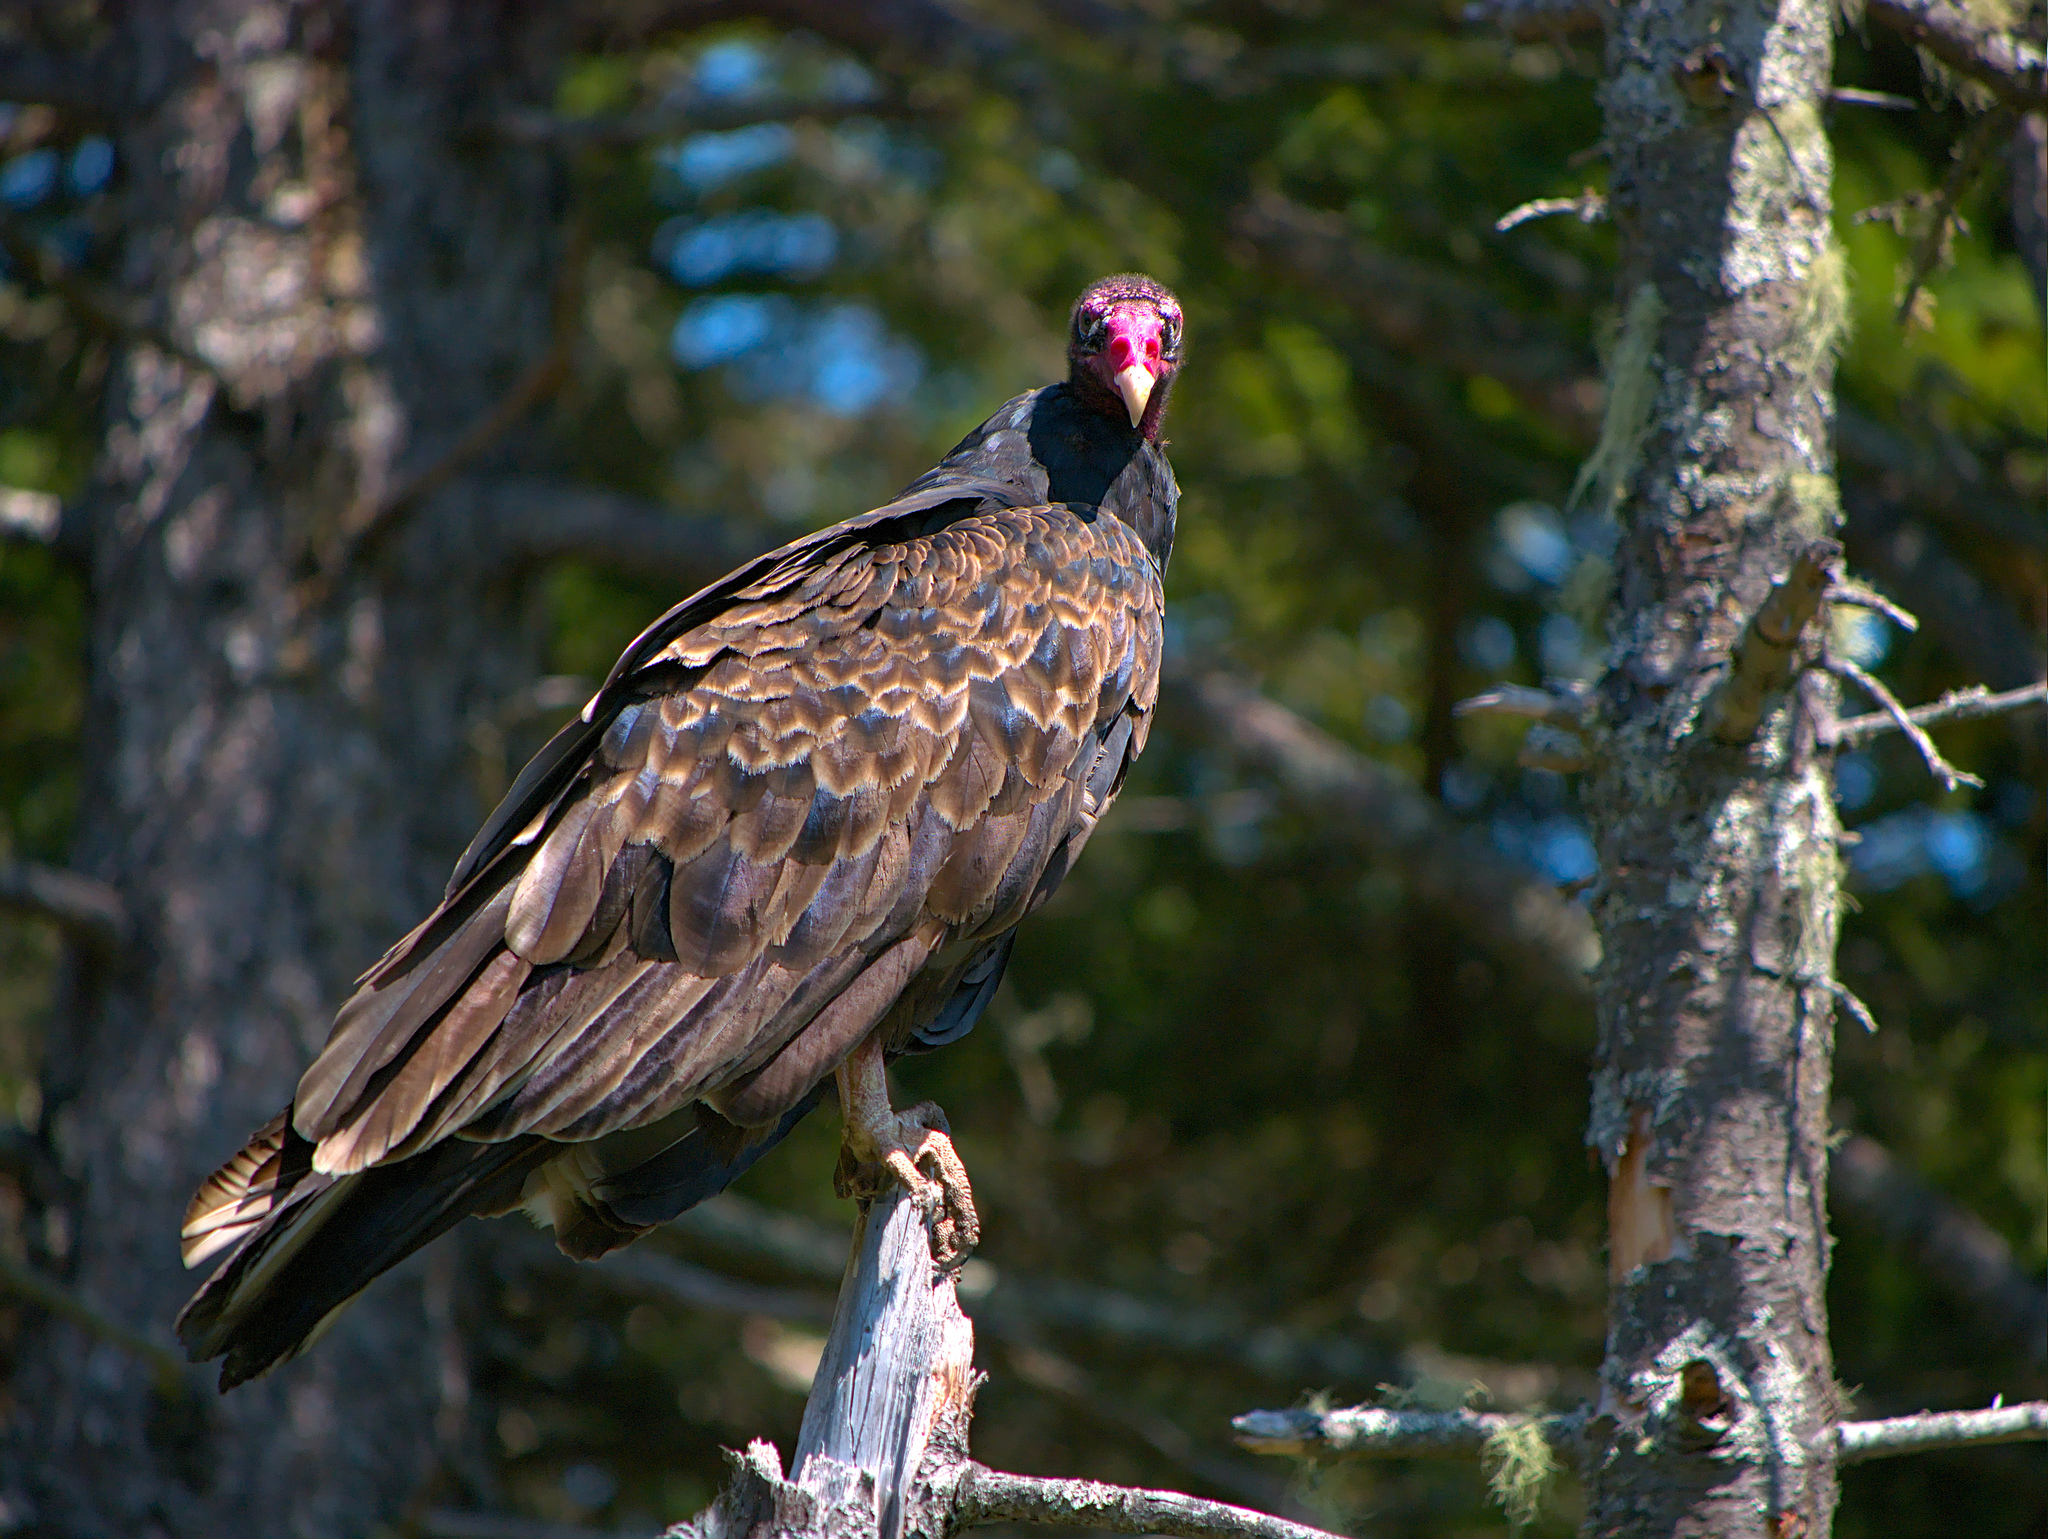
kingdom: Animalia
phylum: Chordata
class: Aves
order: Accipitriformes
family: Cathartidae
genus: Cathartes
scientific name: Cathartes aura
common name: Turkey vulture
